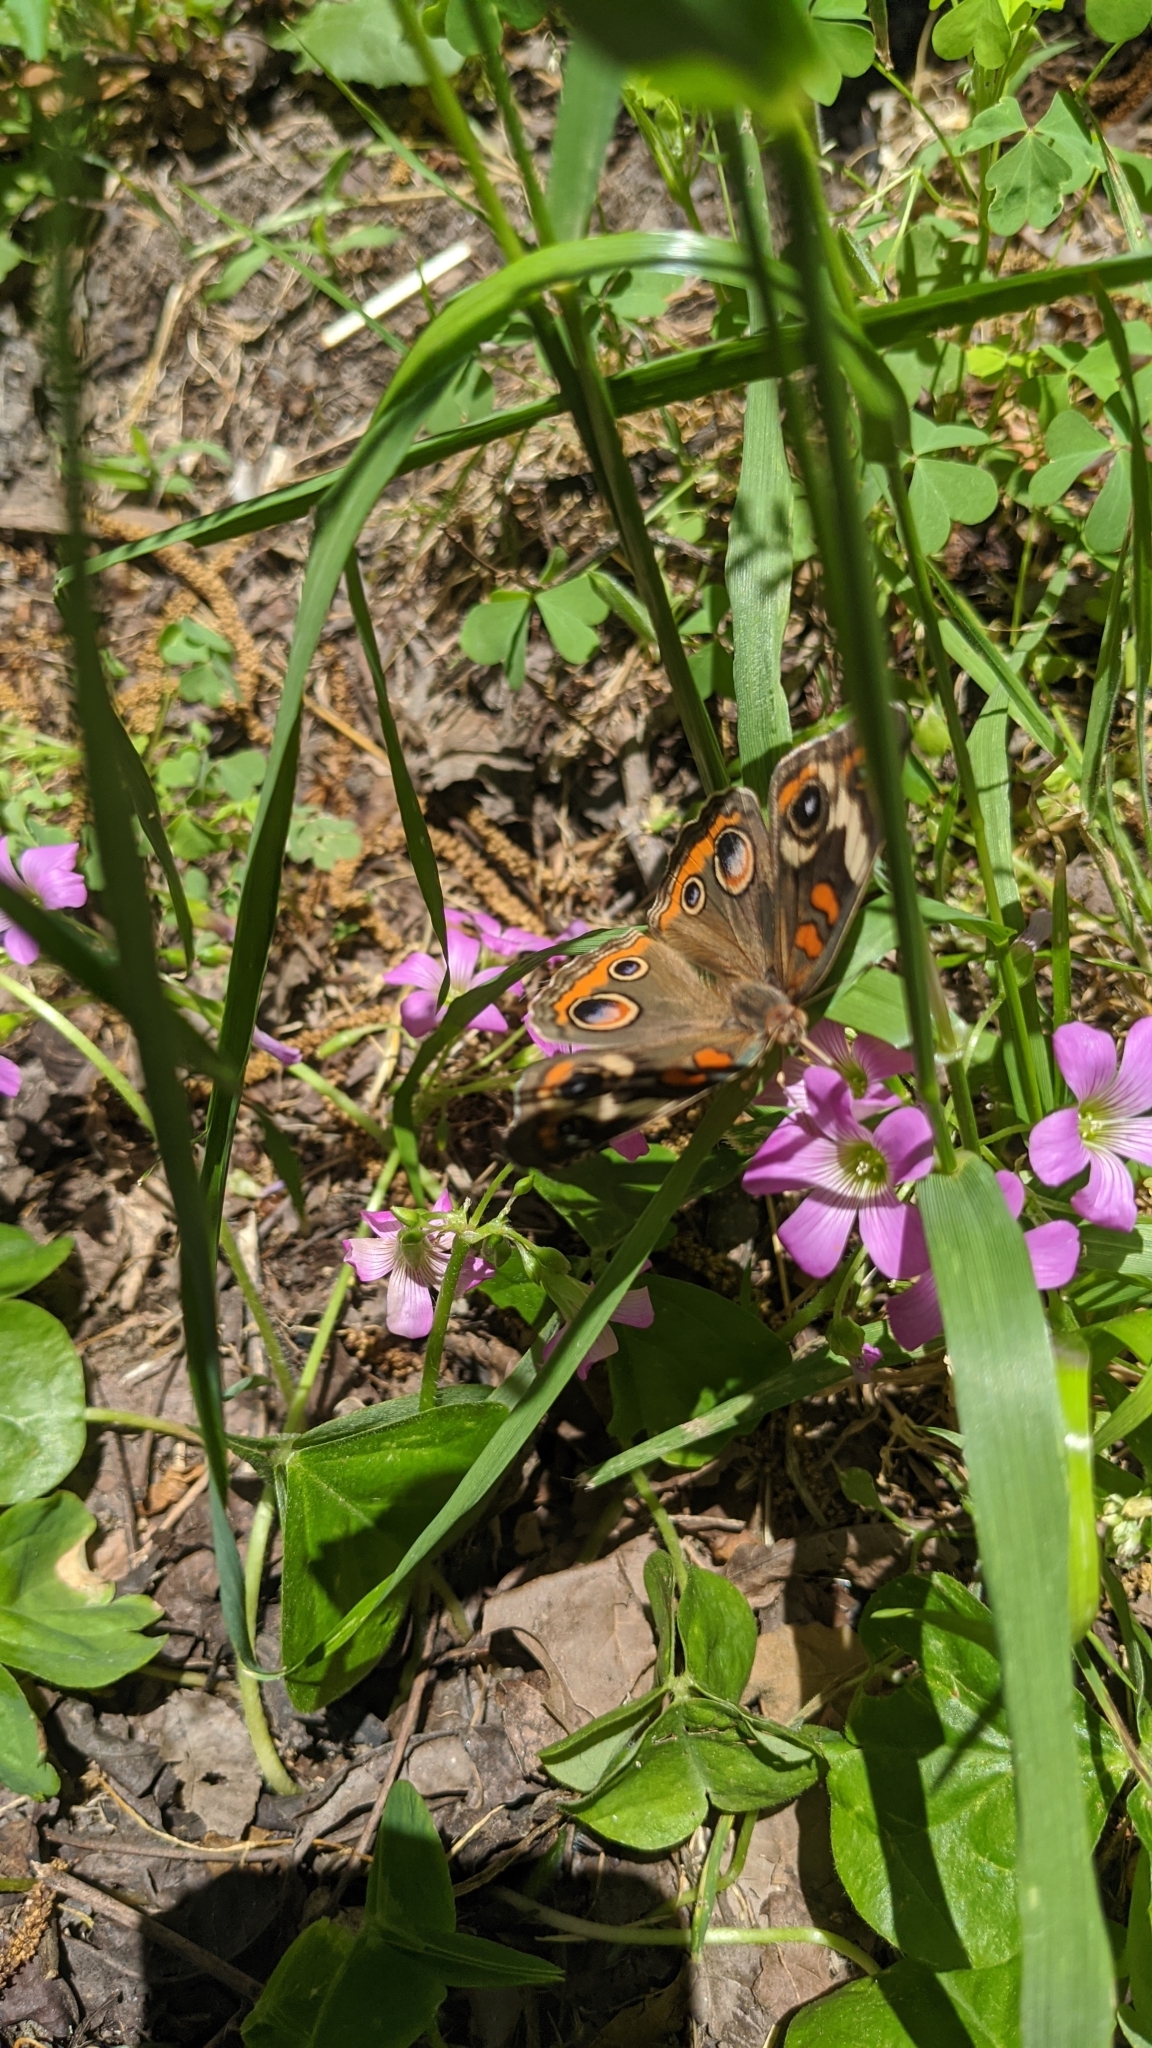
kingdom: Animalia
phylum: Arthropoda
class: Insecta
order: Lepidoptera
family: Nymphalidae
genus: Junonia
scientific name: Junonia coenia
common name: Common buckeye
